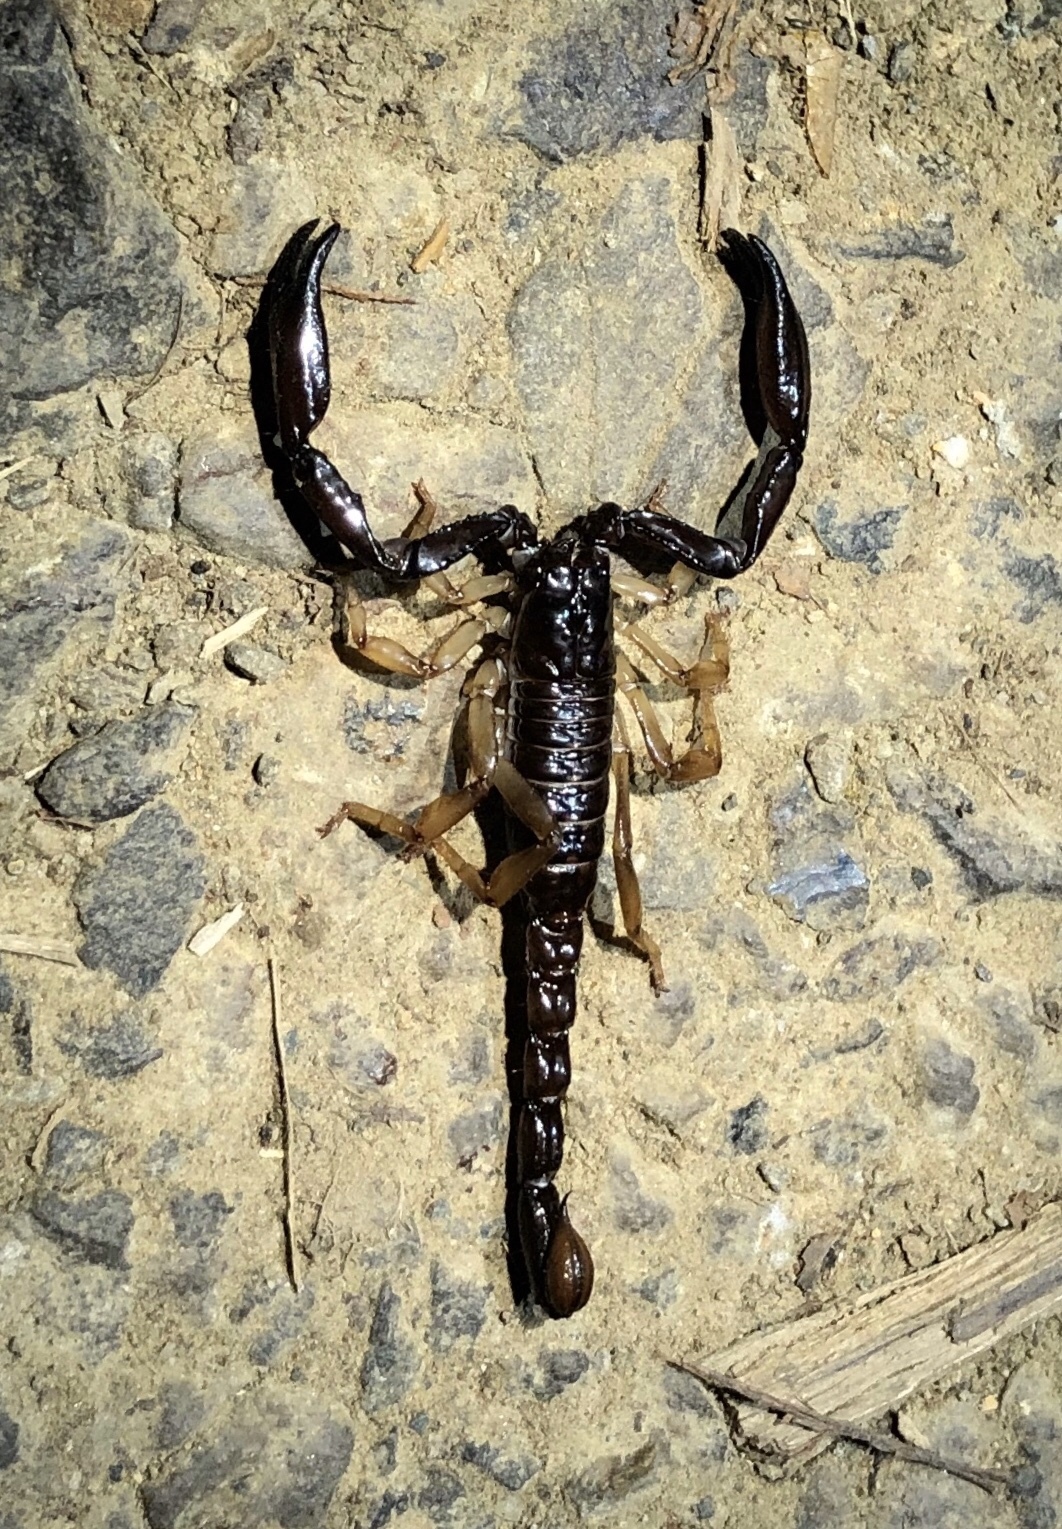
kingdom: Animalia
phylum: Arthropoda
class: Arachnida
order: Scorpiones
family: Chactidae
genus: Chactas
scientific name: Chactas exsul
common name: Scorpions
